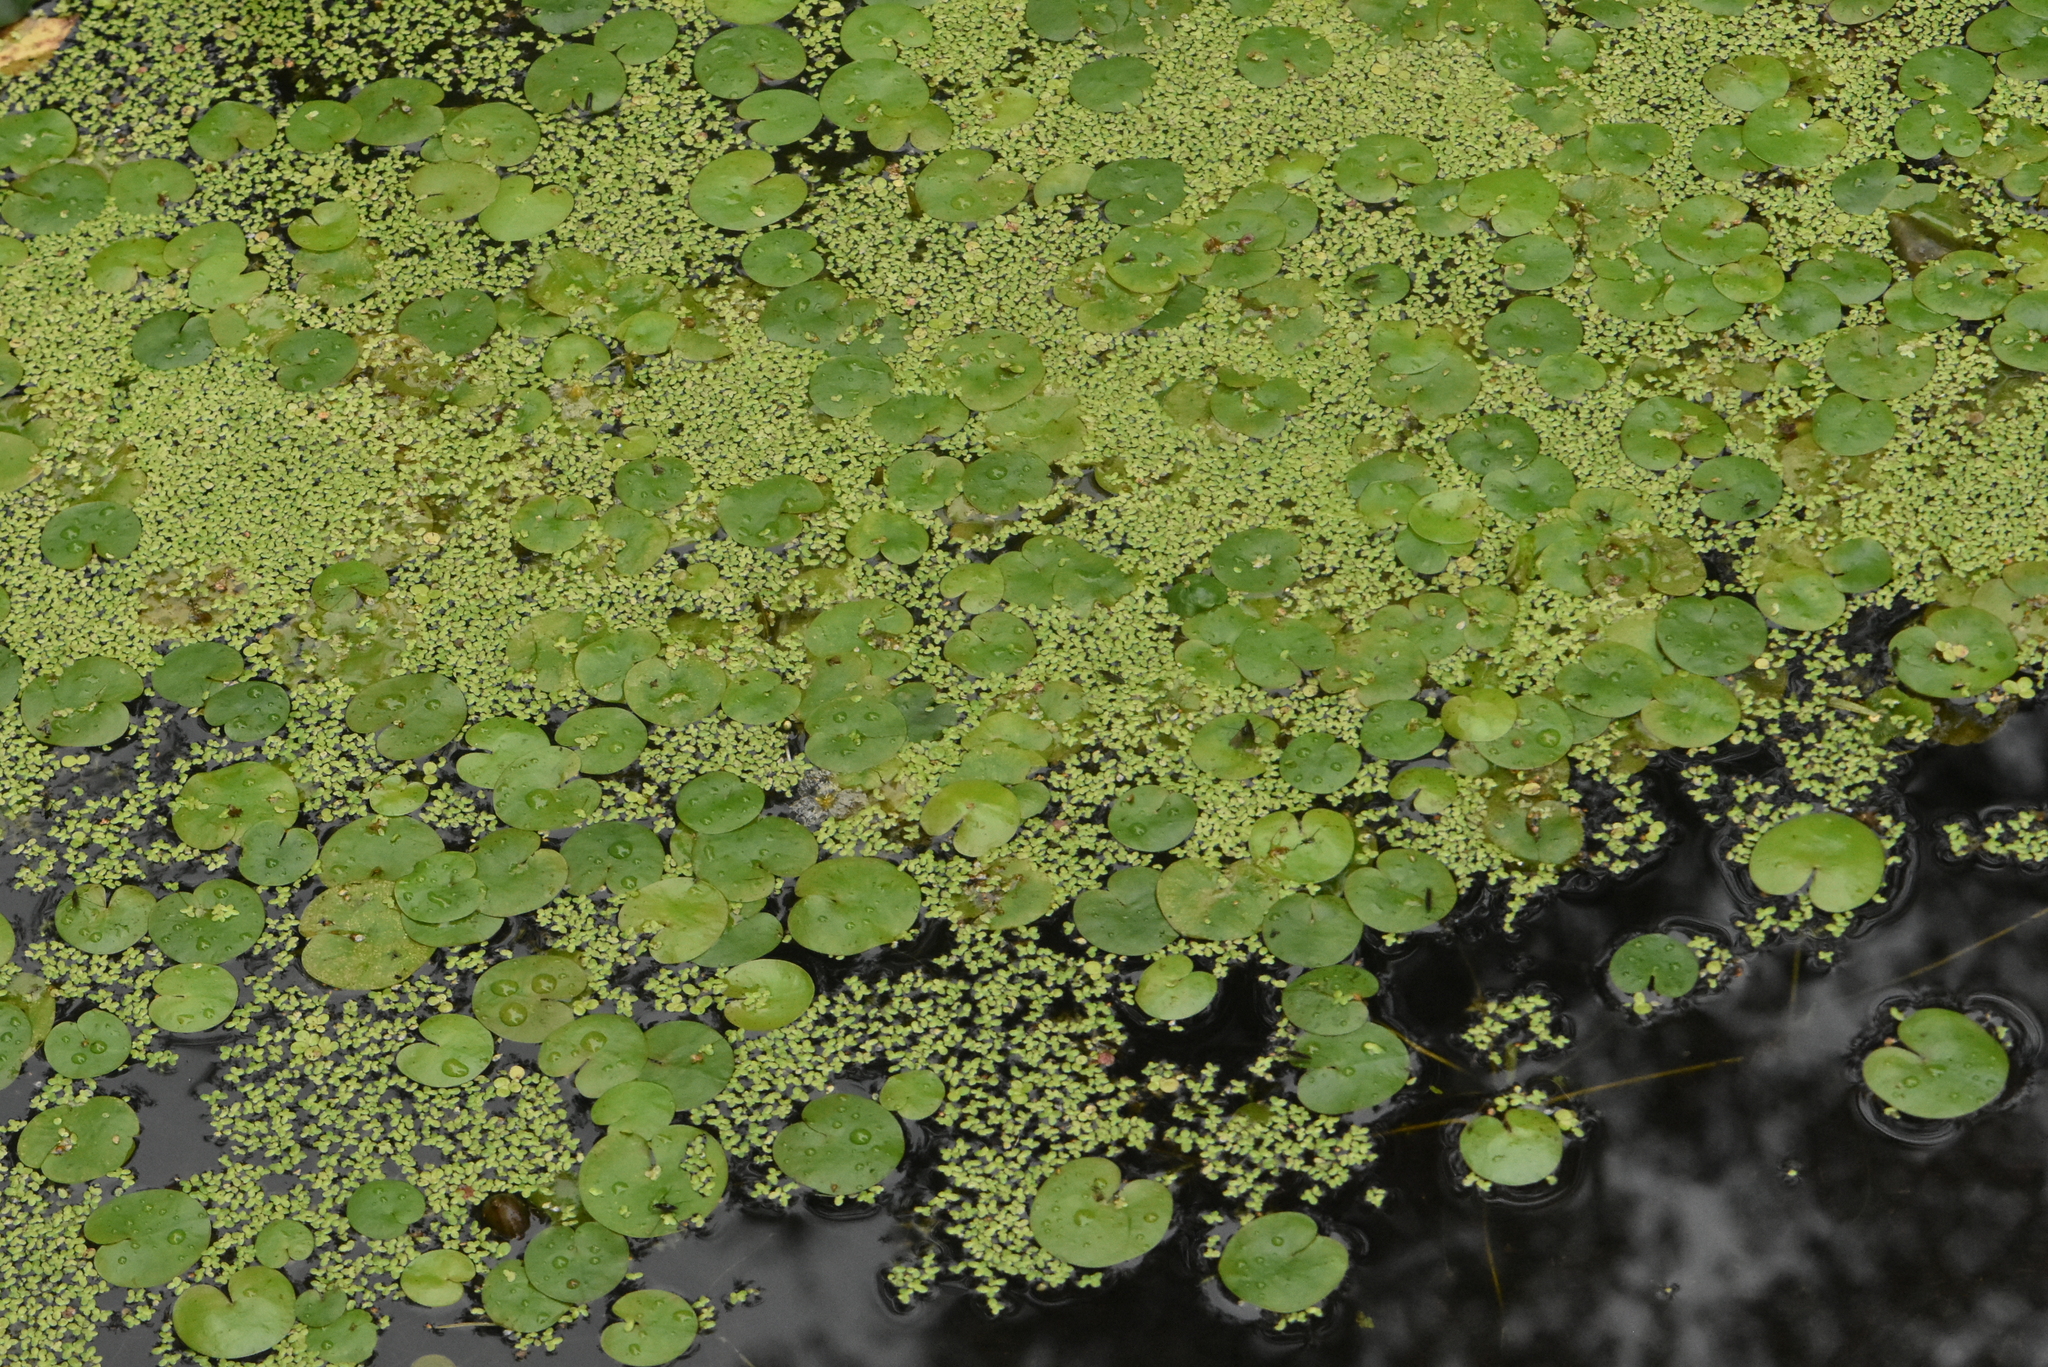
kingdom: Plantae
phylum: Tracheophyta
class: Liliopsida
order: Alismatales
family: Hydrocharitaceae
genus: Hydrocharis
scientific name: Hydrocharis morsus-ranae
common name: Frogbit
